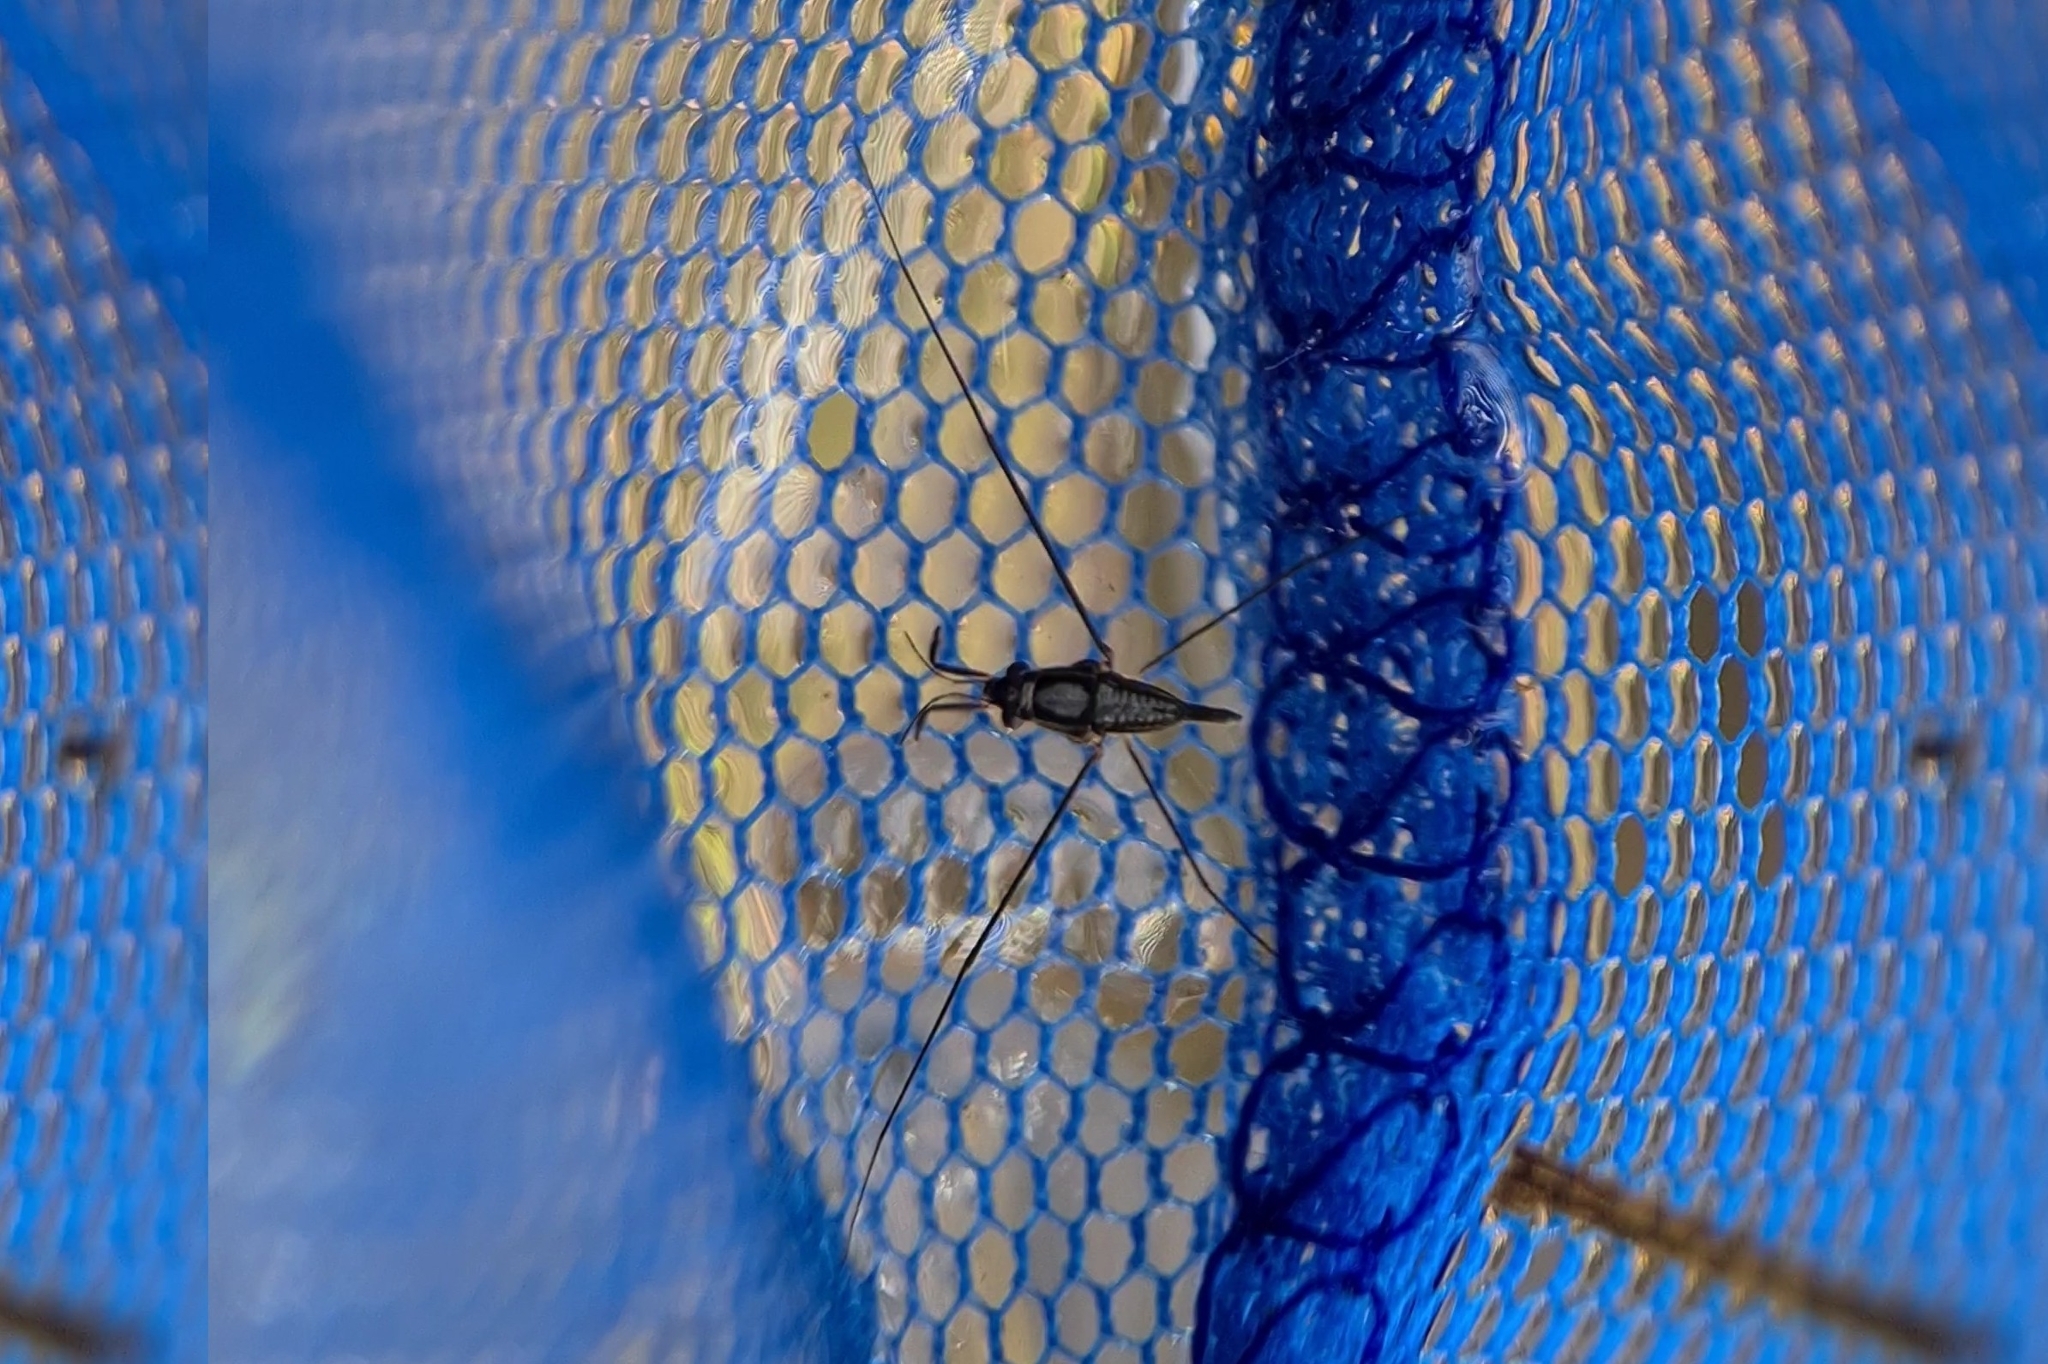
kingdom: Animalia
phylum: Arthropoda
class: Insecta
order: Hemiptera
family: Gerridae
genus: Rhagadotarsus
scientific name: Rhagadotarsus anomalus
